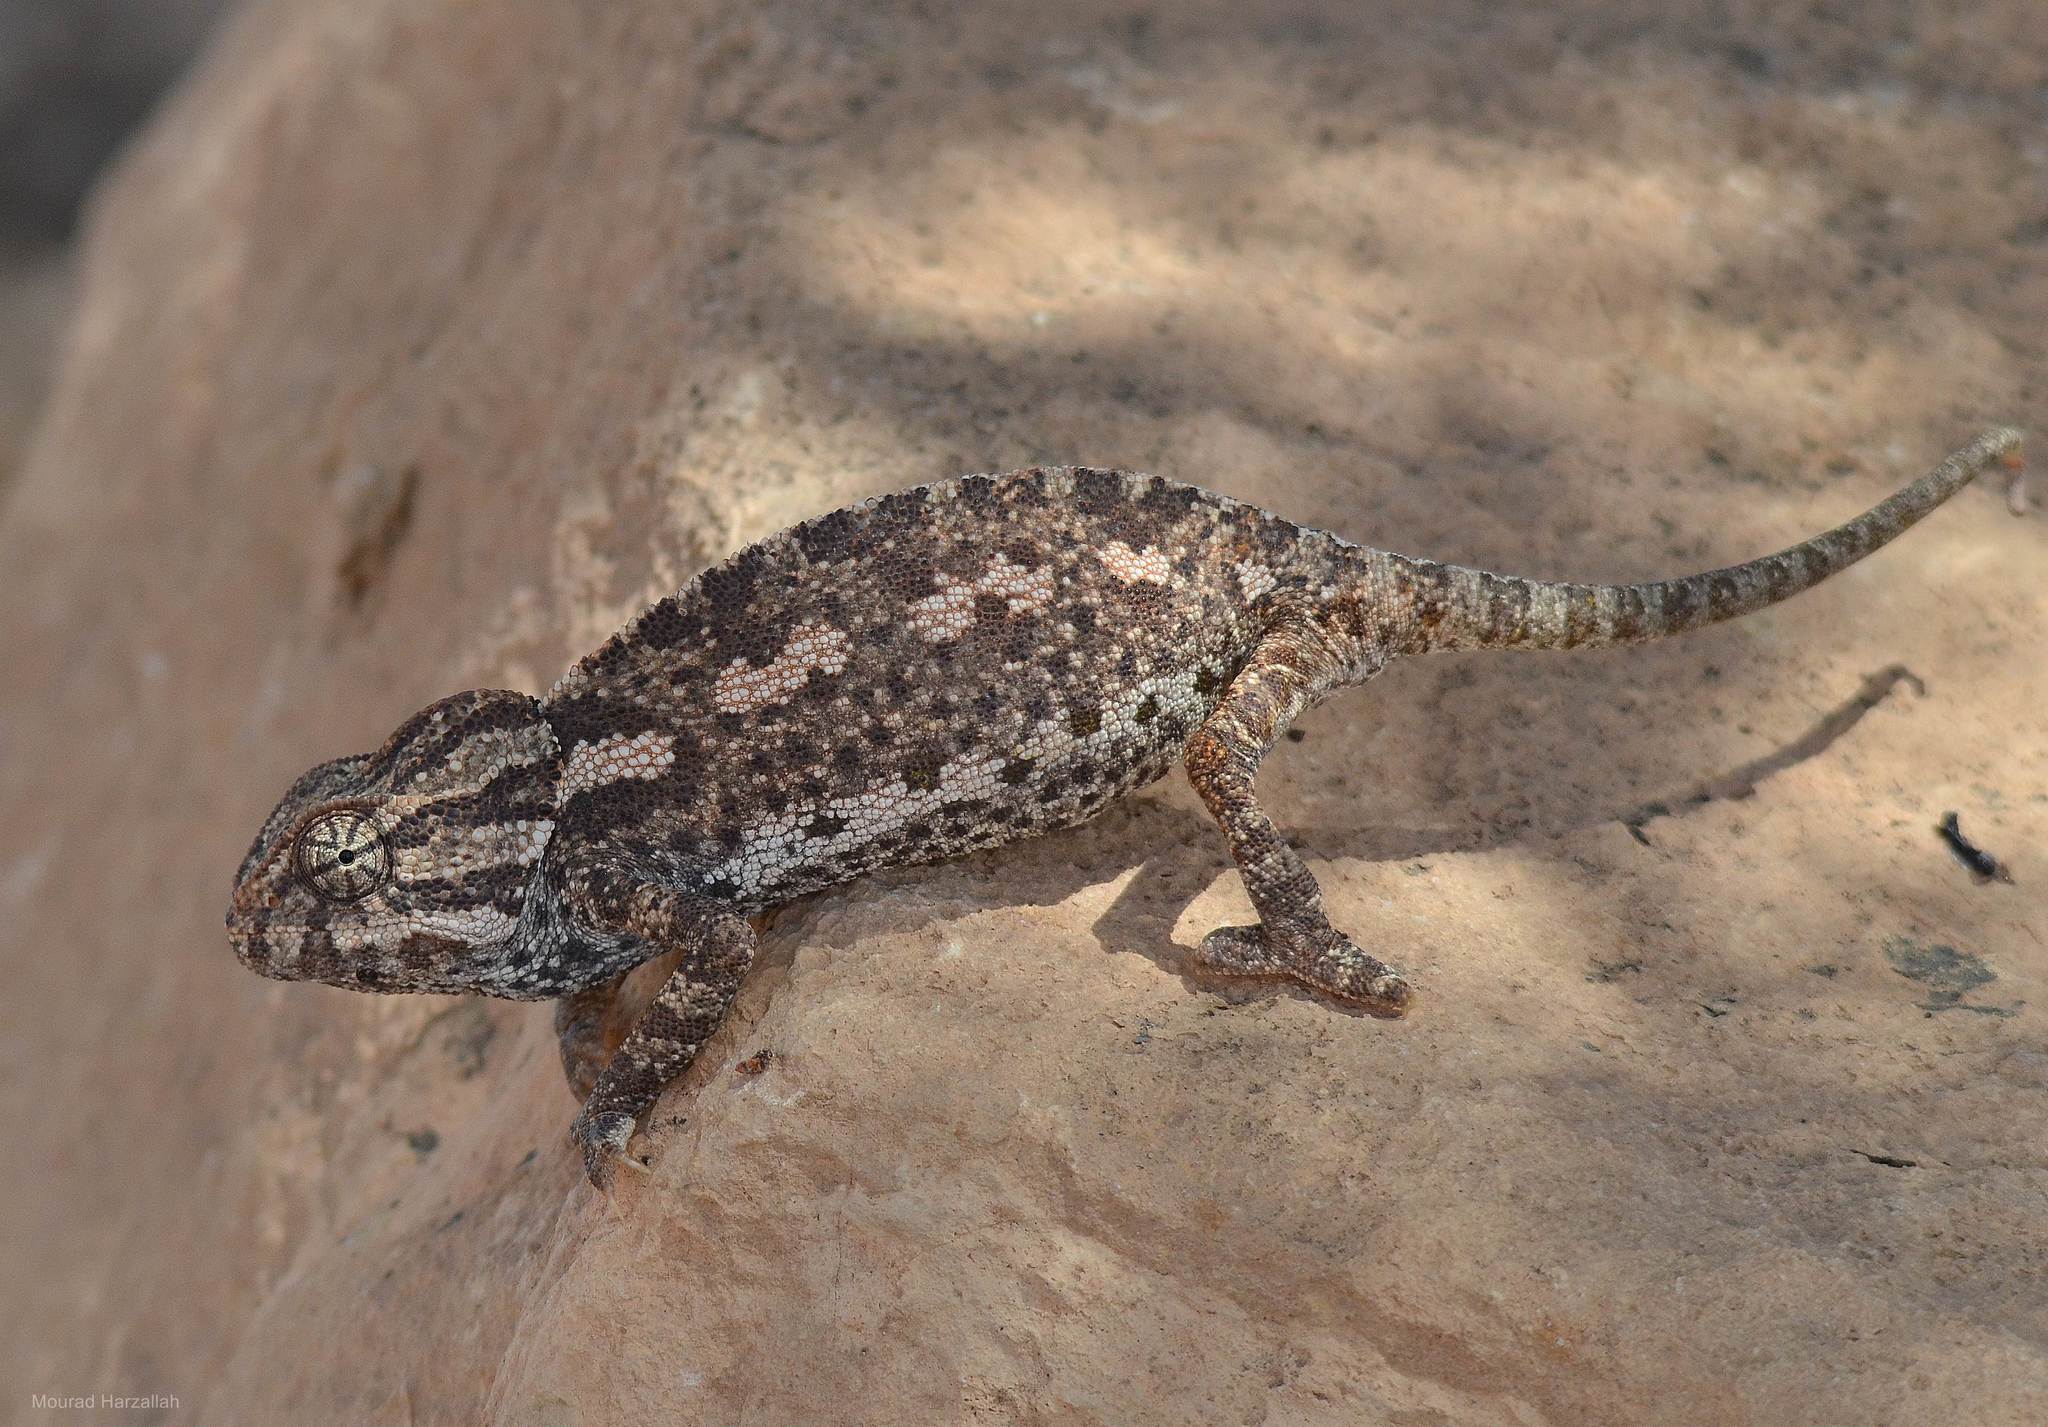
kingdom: Animalia
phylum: Chordata
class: Squamata
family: Chamaeleonidae
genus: Chamaeleo
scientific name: Chamaeleo chamaeleon
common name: Mediterranean chameleon
